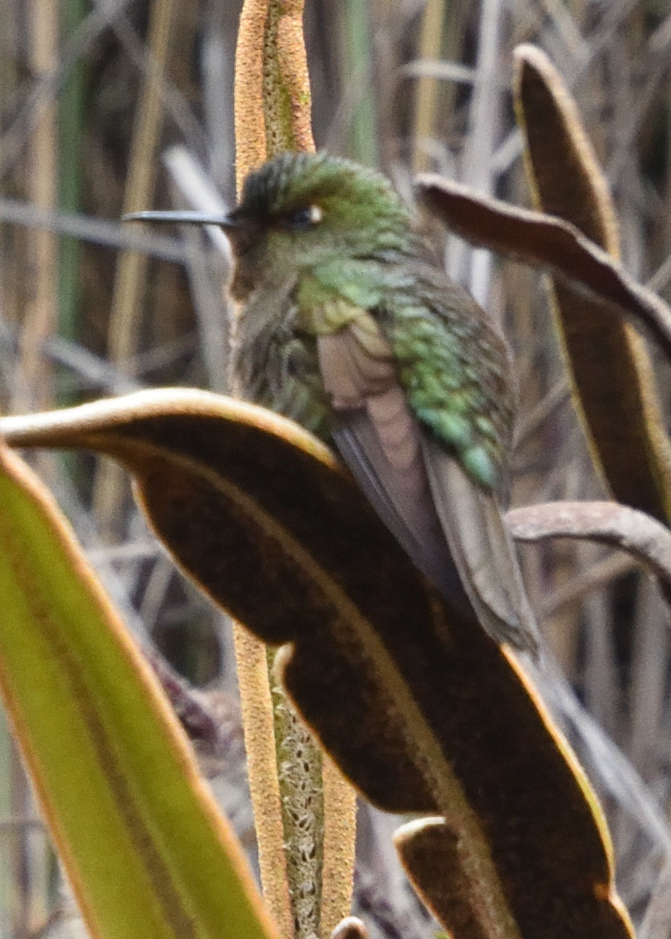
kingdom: Animalia
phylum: Chordata
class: Aves
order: Apodiformes
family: Trochilidae
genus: Metallura
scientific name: Metallura williami
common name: Viridian metaltail
